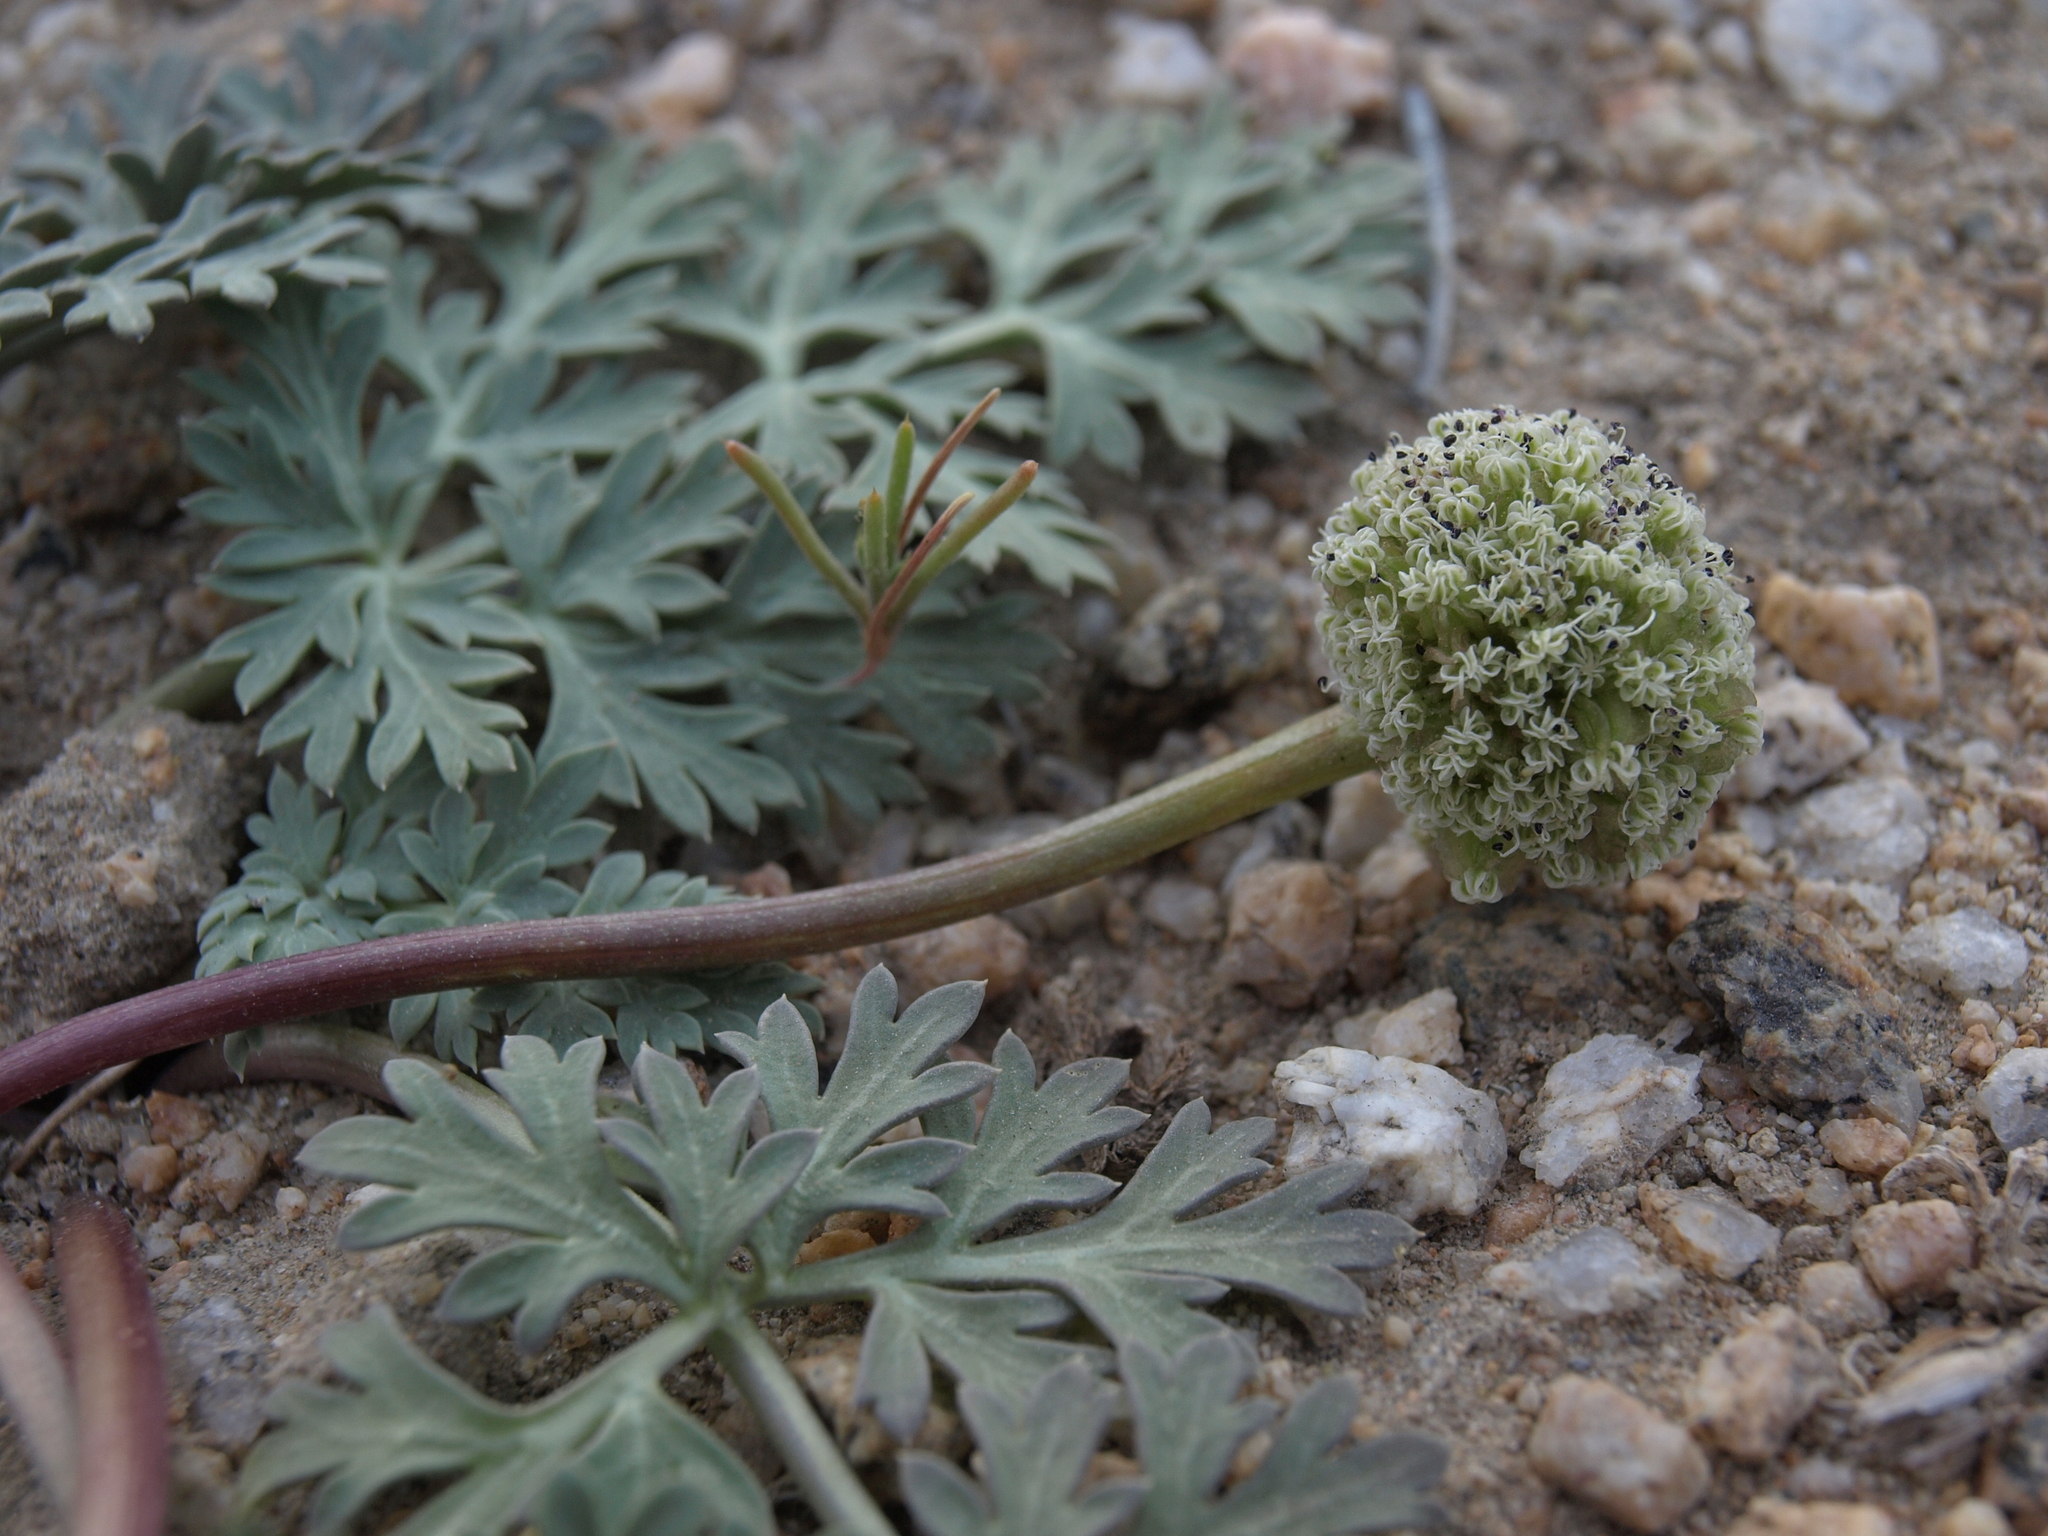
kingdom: Plantae
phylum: Tracheophyta
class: Magnoliopsida
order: Apiales
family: Apiaceae
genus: Cymopterus
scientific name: Cymopterus globosus
